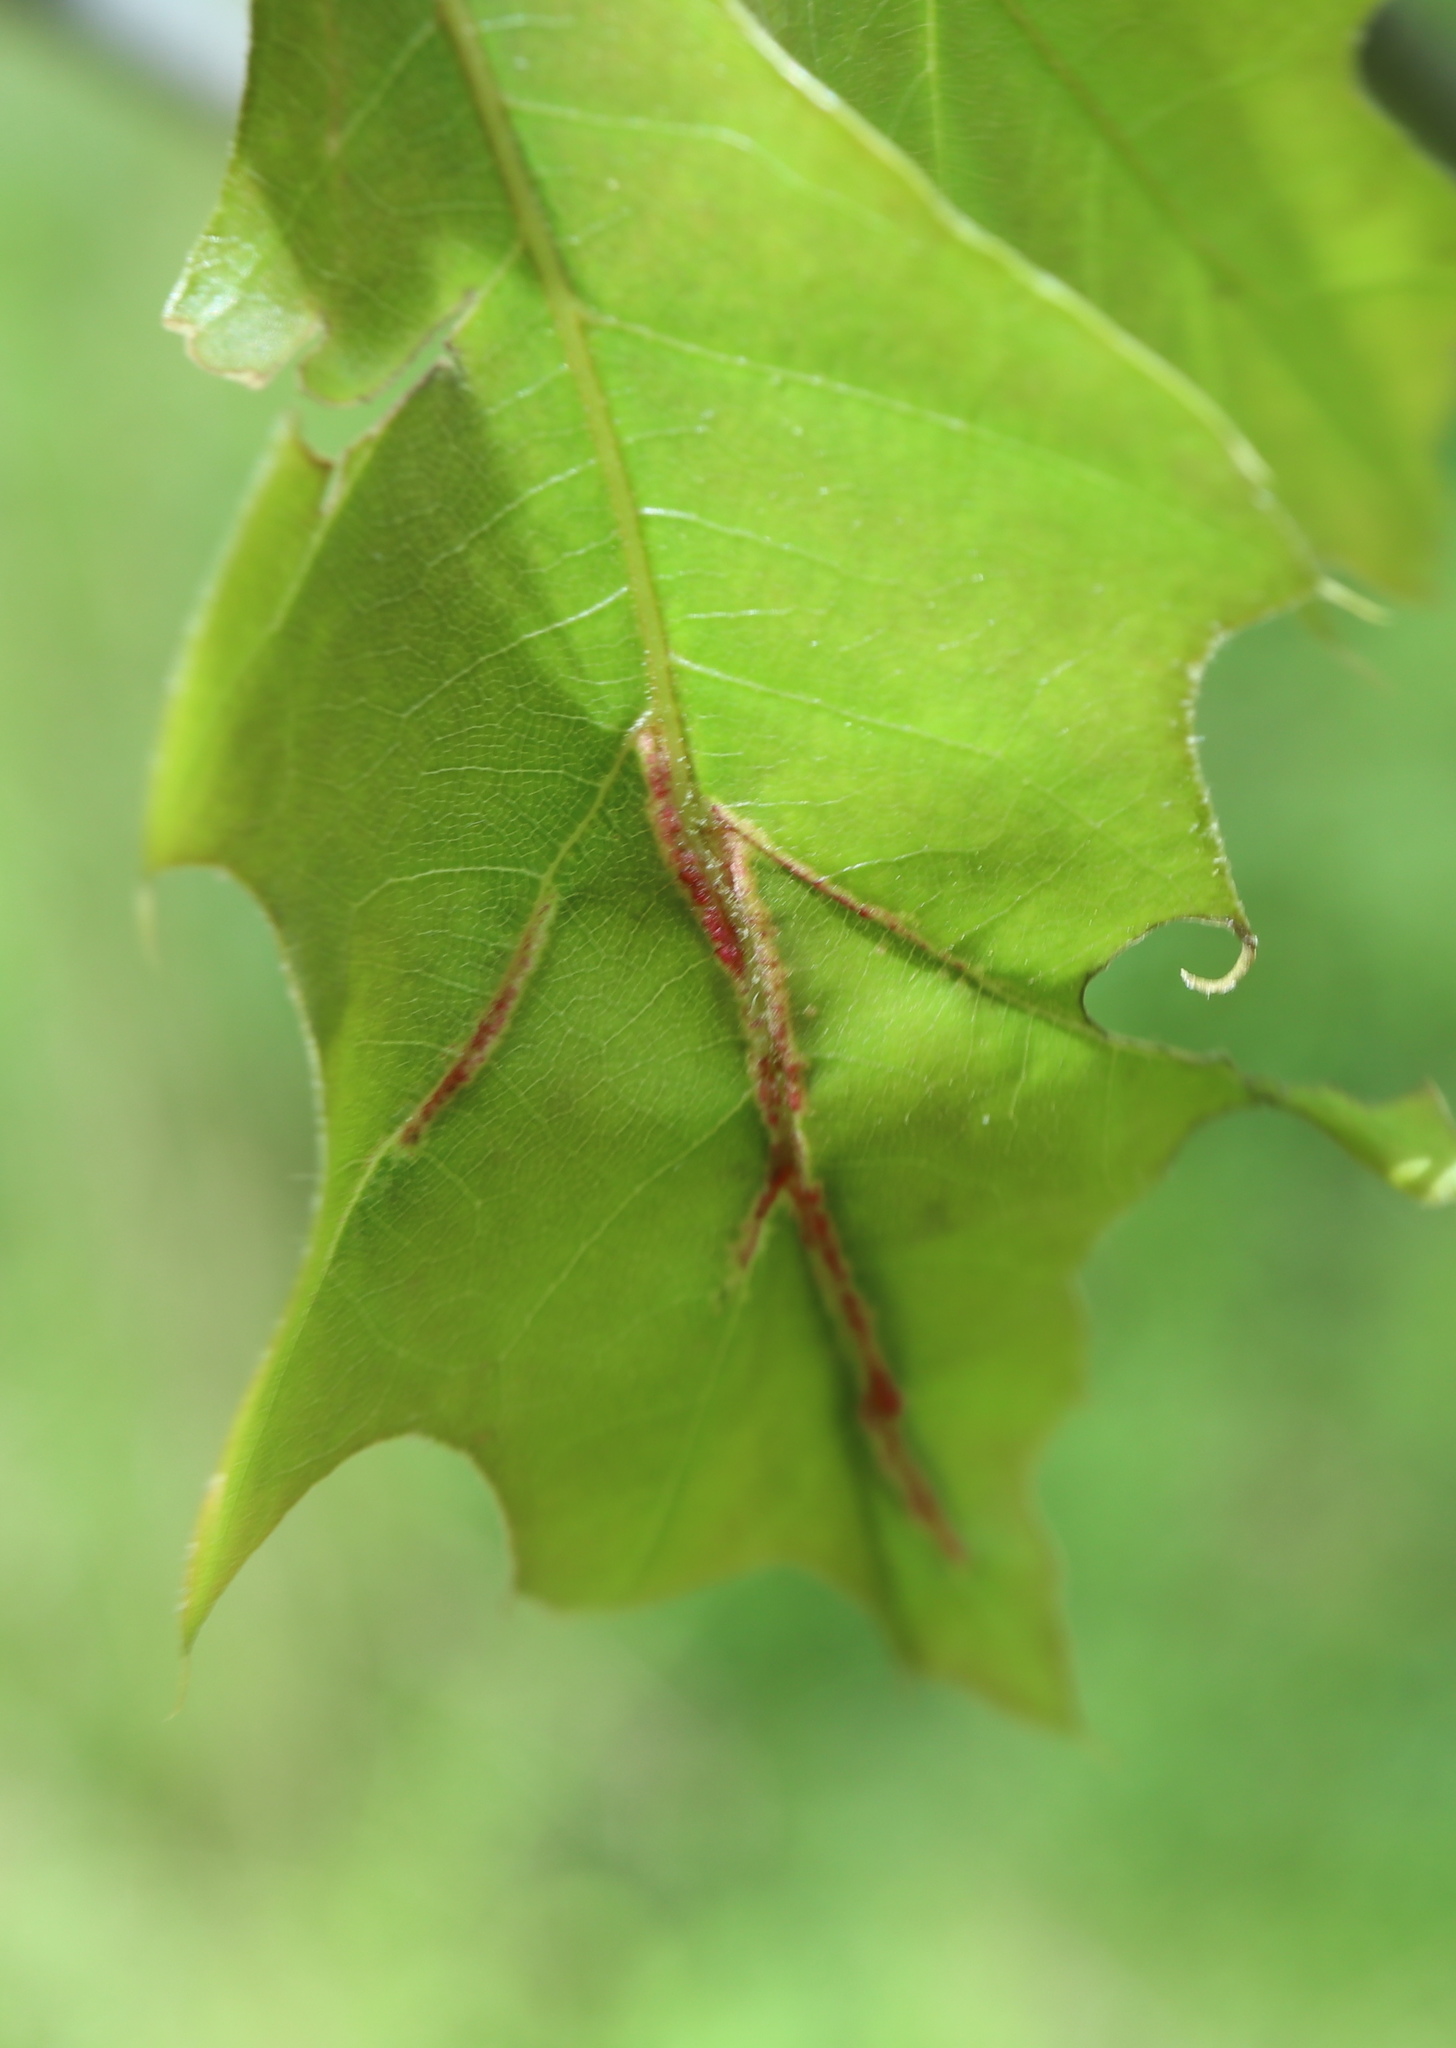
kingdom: Animalia
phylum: Arthropoda
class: Insecta
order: Diptera
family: Cecidomyiidae
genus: Macrodiplosis
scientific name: Macrodiplosis q-orucum
